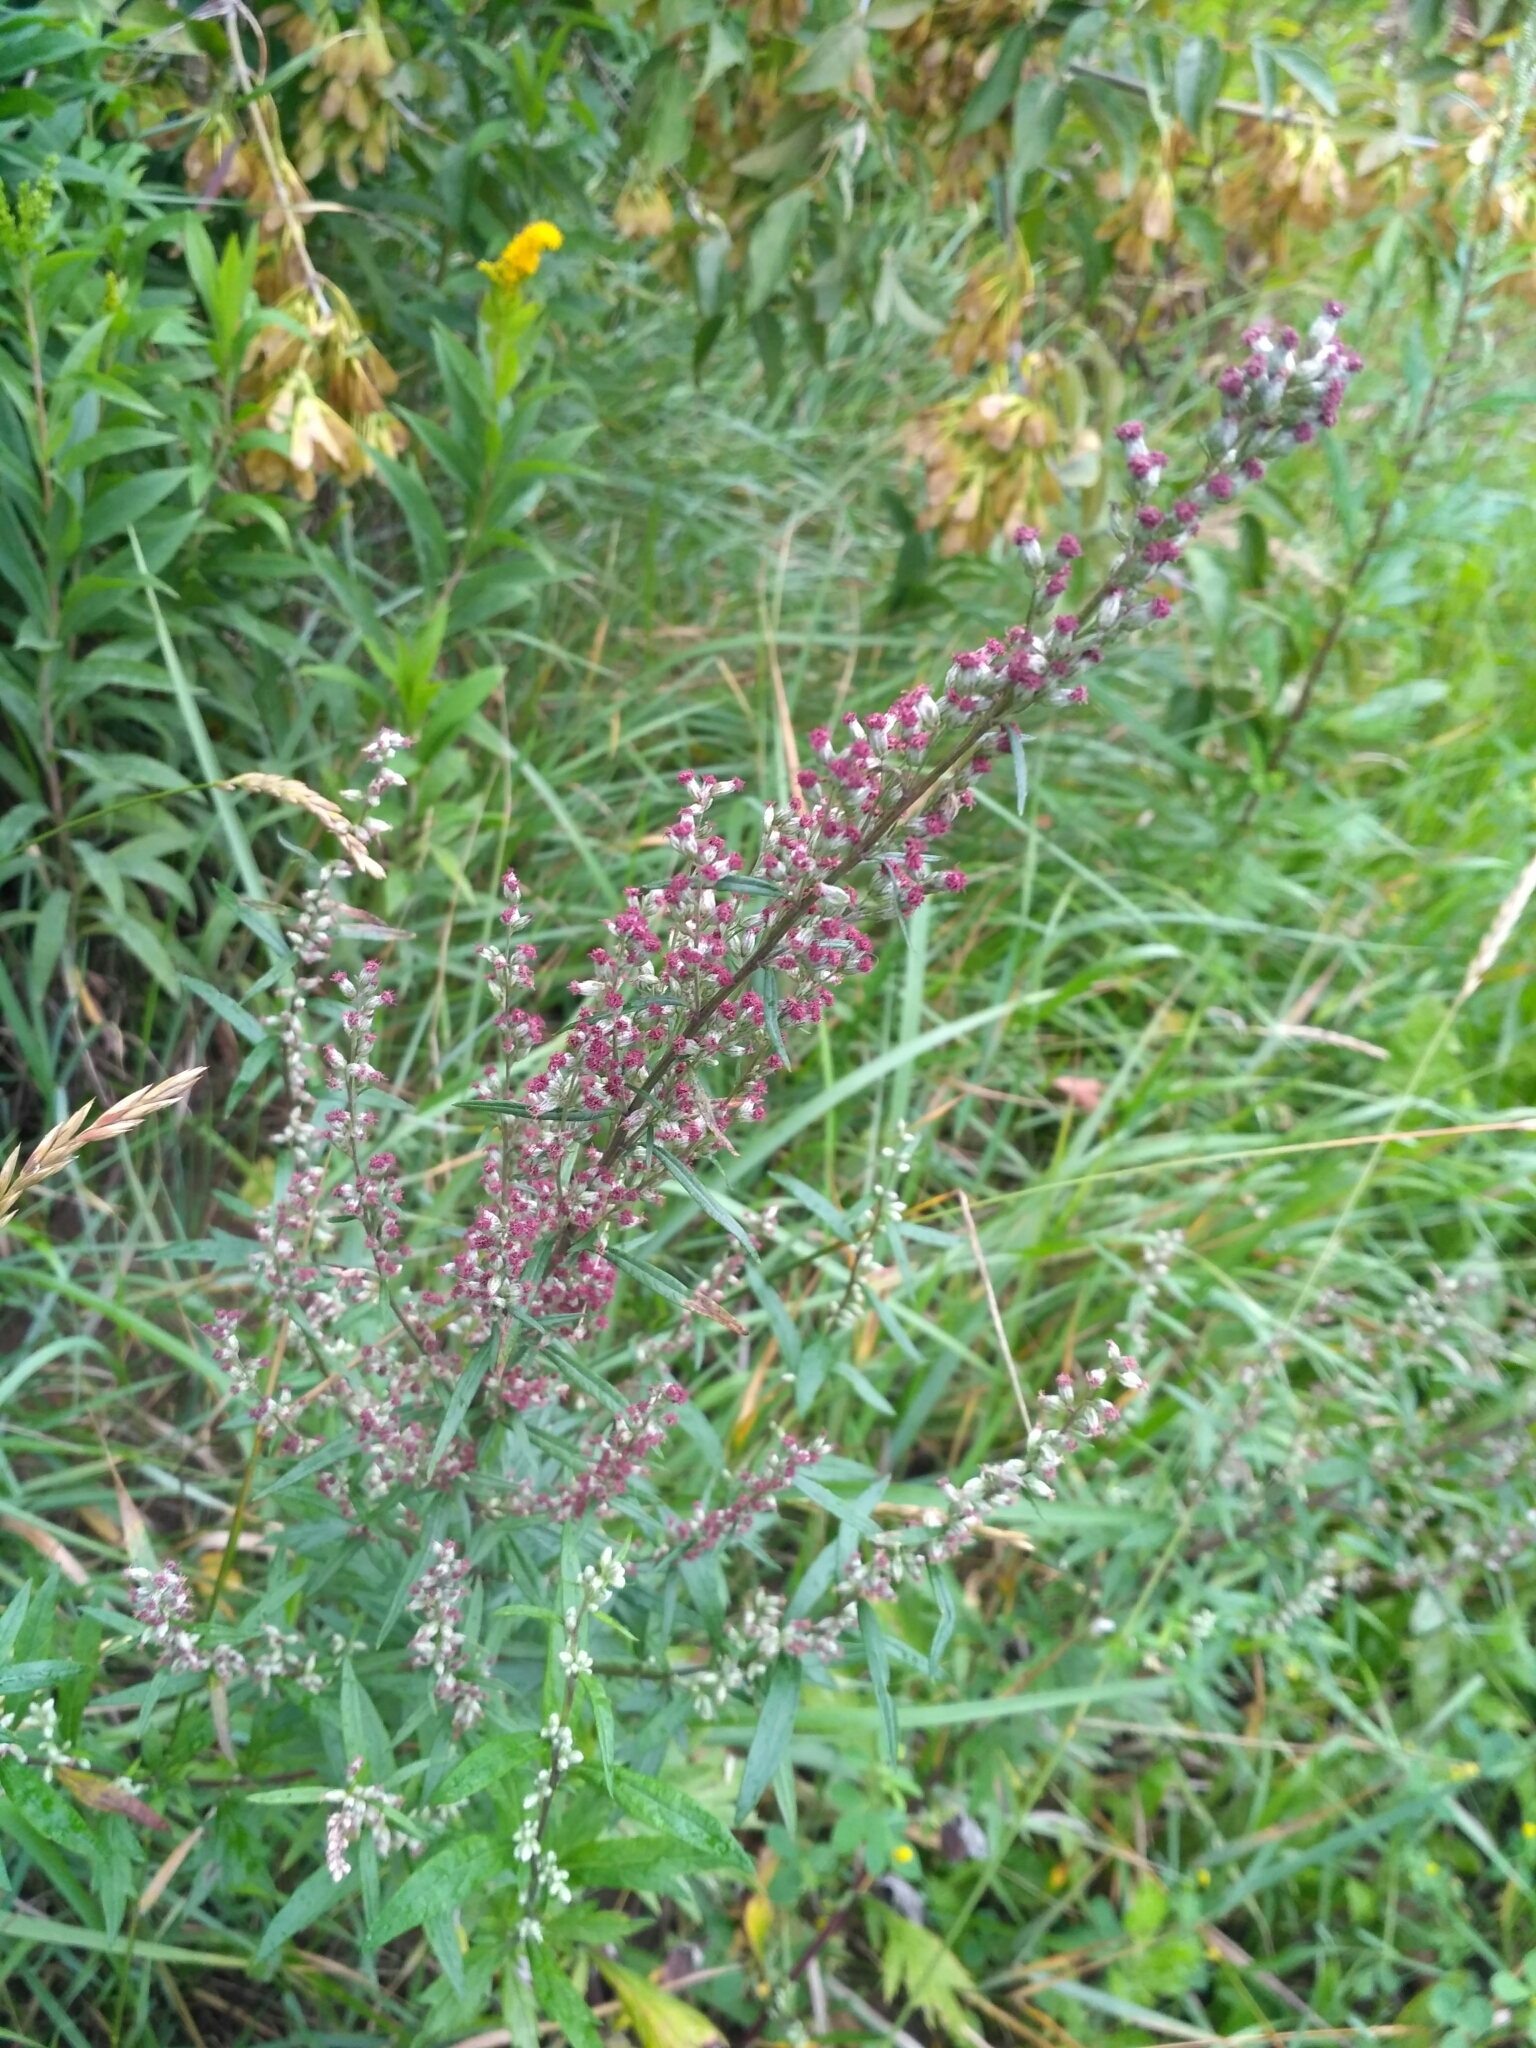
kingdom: Plantae
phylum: Tracheophyta
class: Magnoliopsida
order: Asterales
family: Asteraceae
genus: Artemisia
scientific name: Artemisia vulgaris
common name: Mugwort
